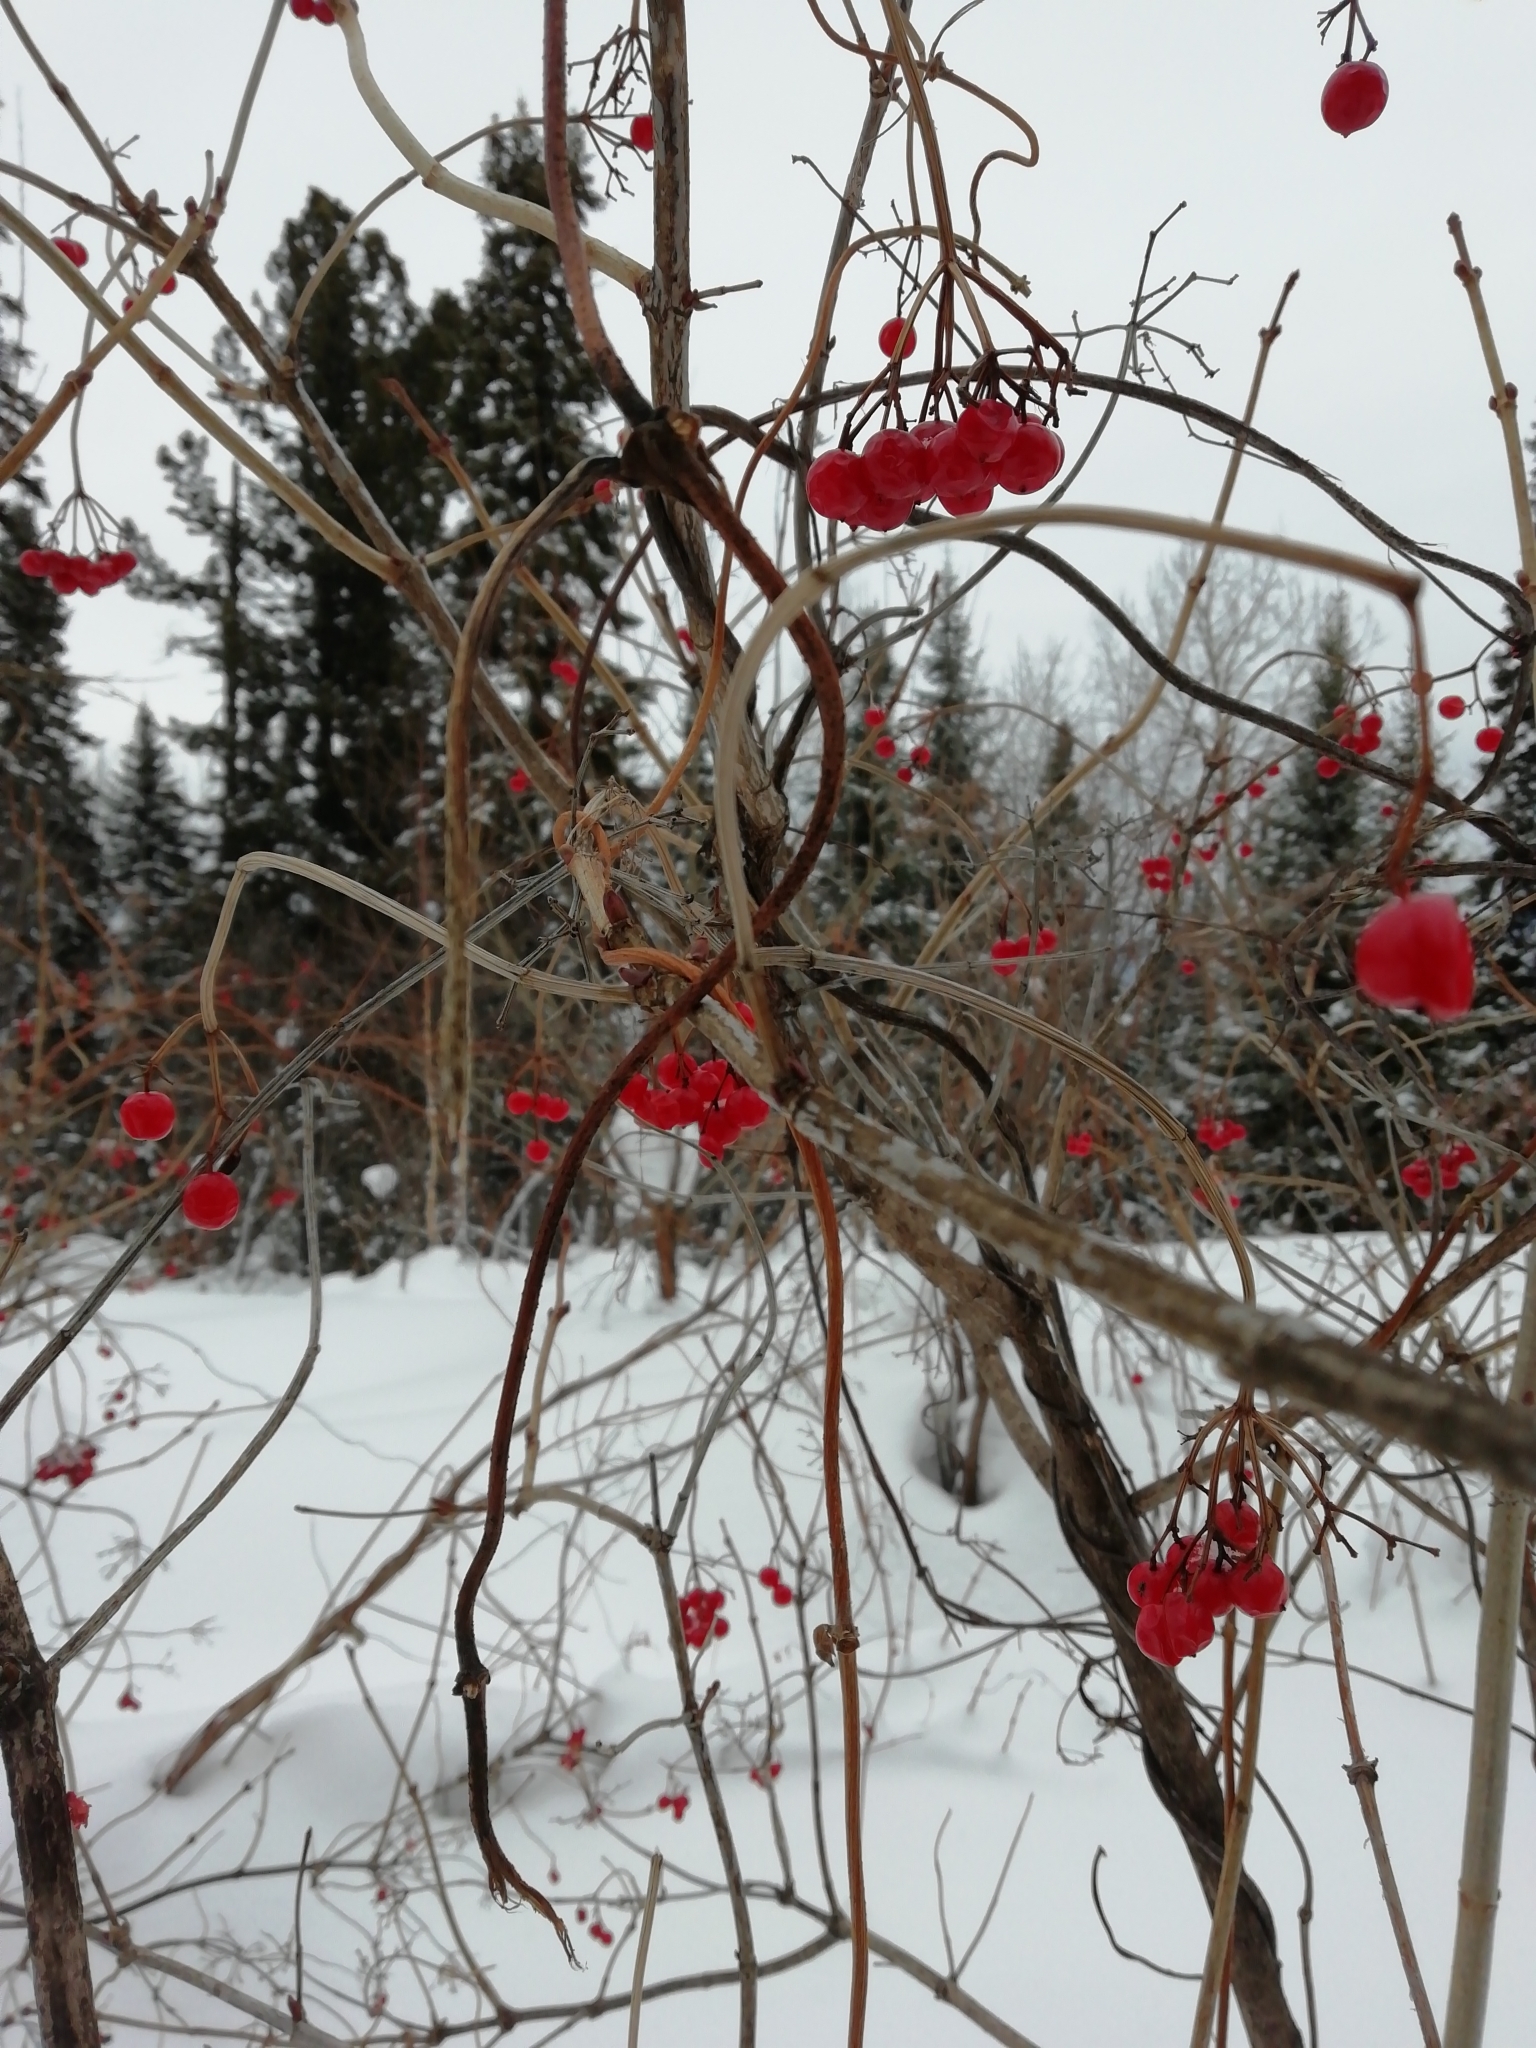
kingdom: Plantae
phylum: Tracheophyta
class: Magnoliopsida
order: Dipsacales
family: Viburnaceae
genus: Viburnum
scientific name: Viburnum opulus
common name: Guelder-rose
